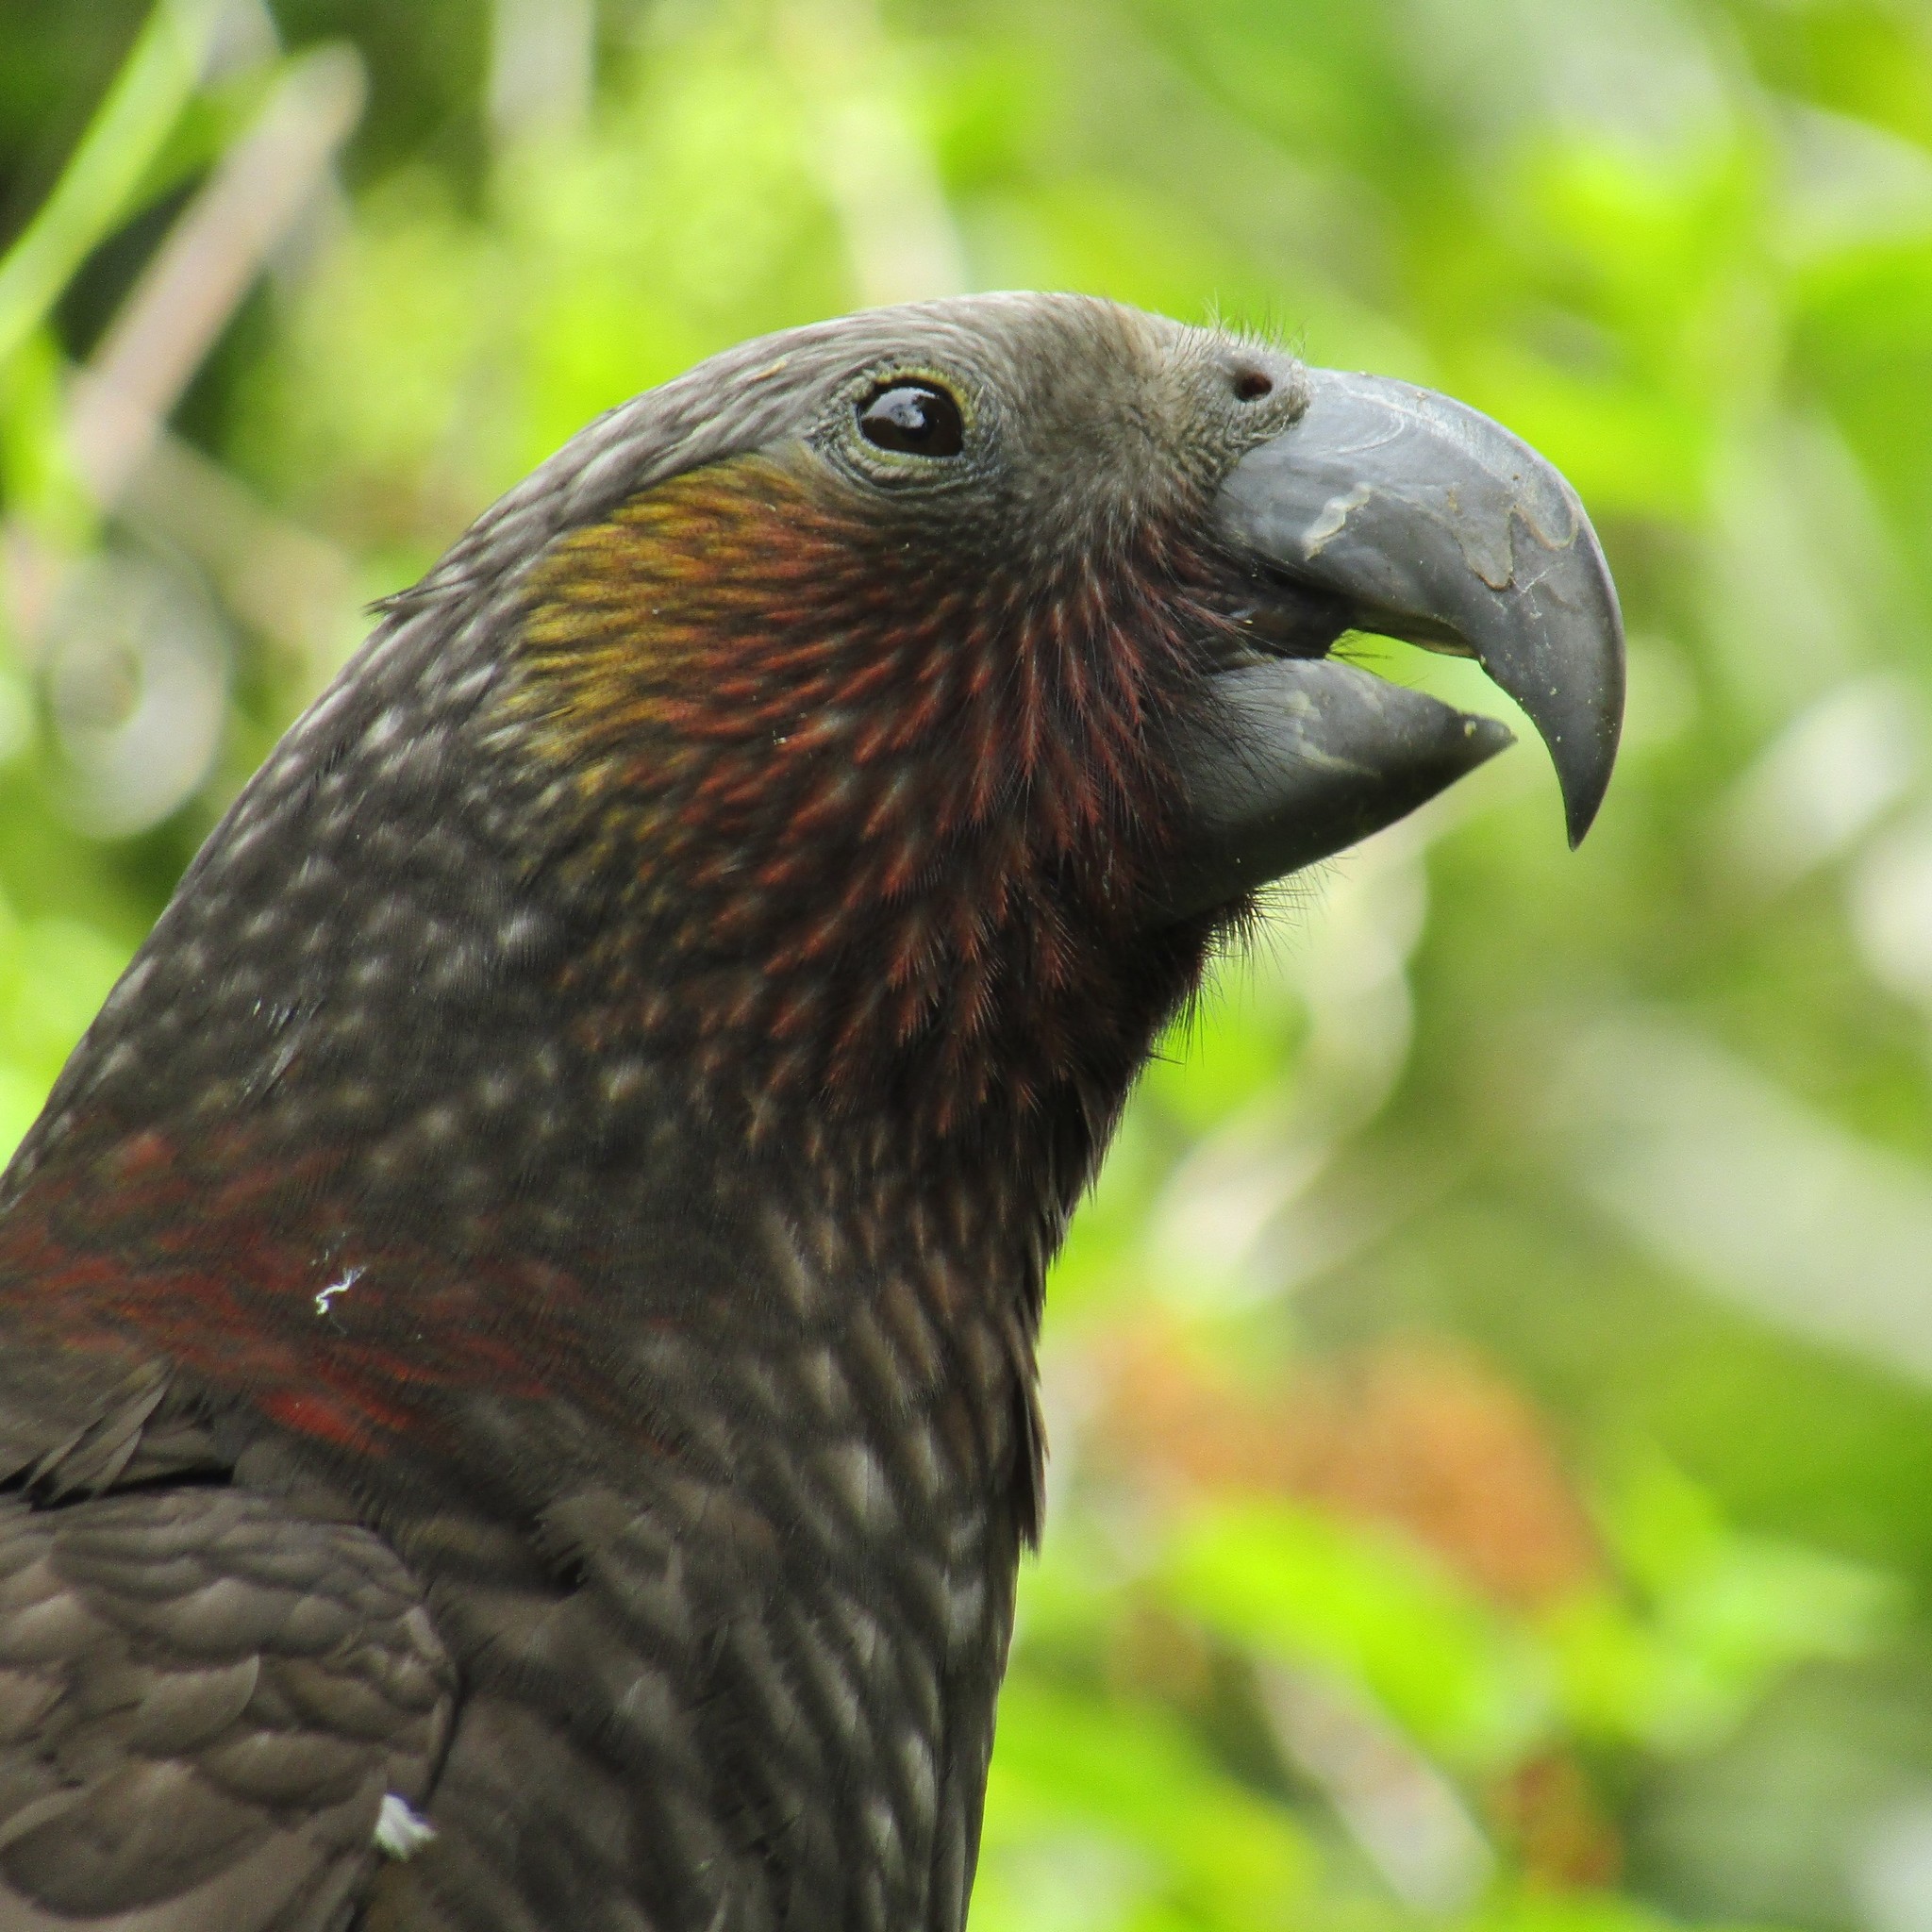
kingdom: Animalia
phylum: Chordata
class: Aves
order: Psittaciformes
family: Psittacidae
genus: Nestor
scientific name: Nestor meridionalis
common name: New zealand kaka
